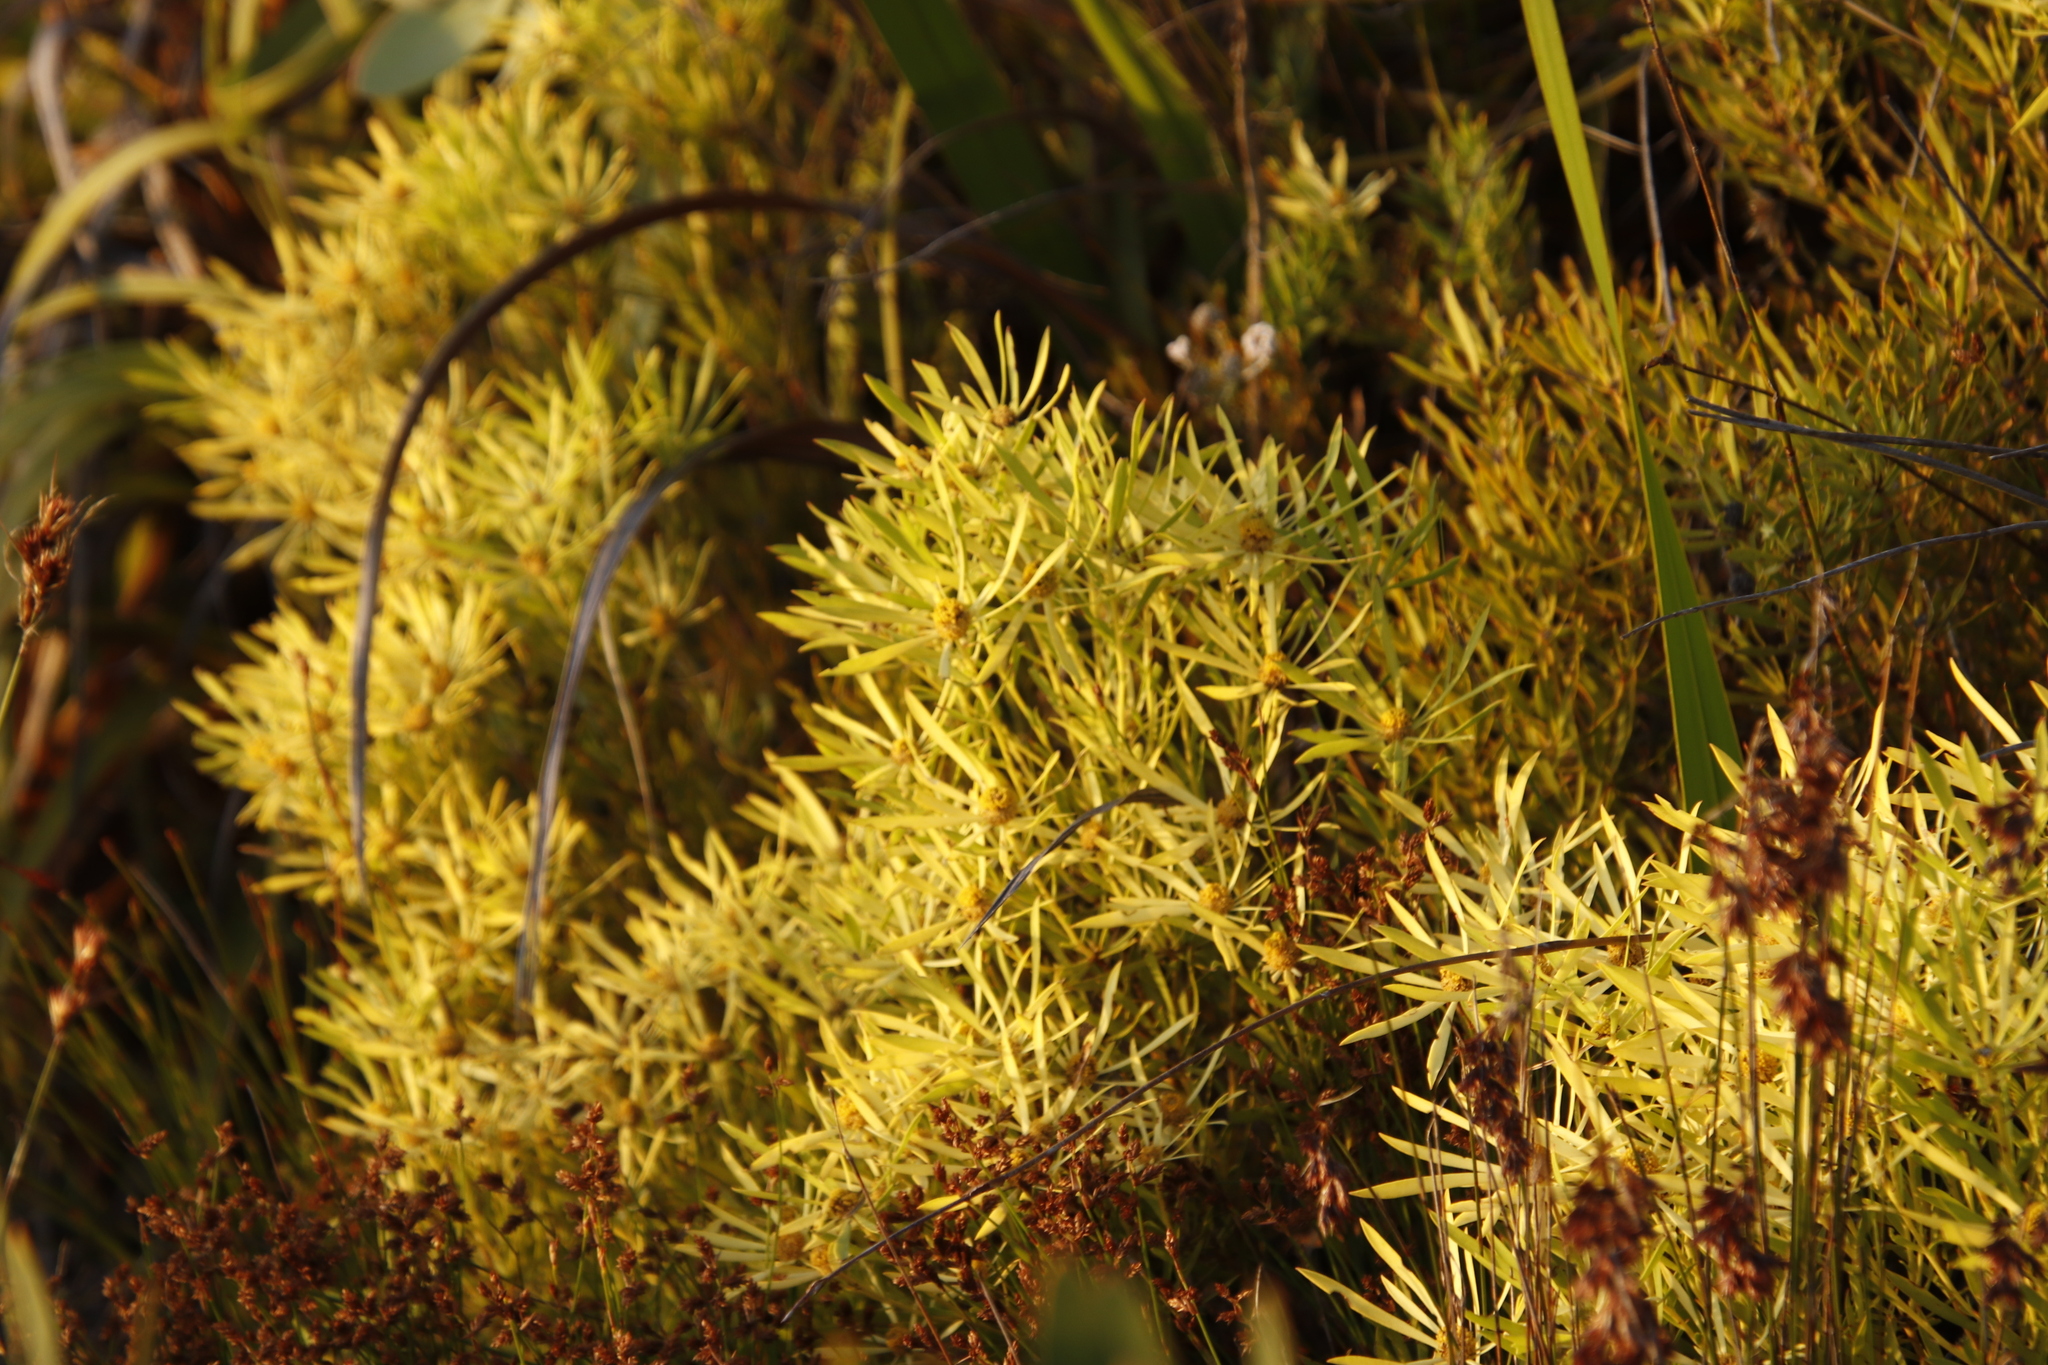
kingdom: Plantae
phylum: Tracheophyta
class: Magnoliopsida
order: Proteales
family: Proteaceae
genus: Leucadendron
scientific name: Leucadendron salignum
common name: Common sunshine conebush
